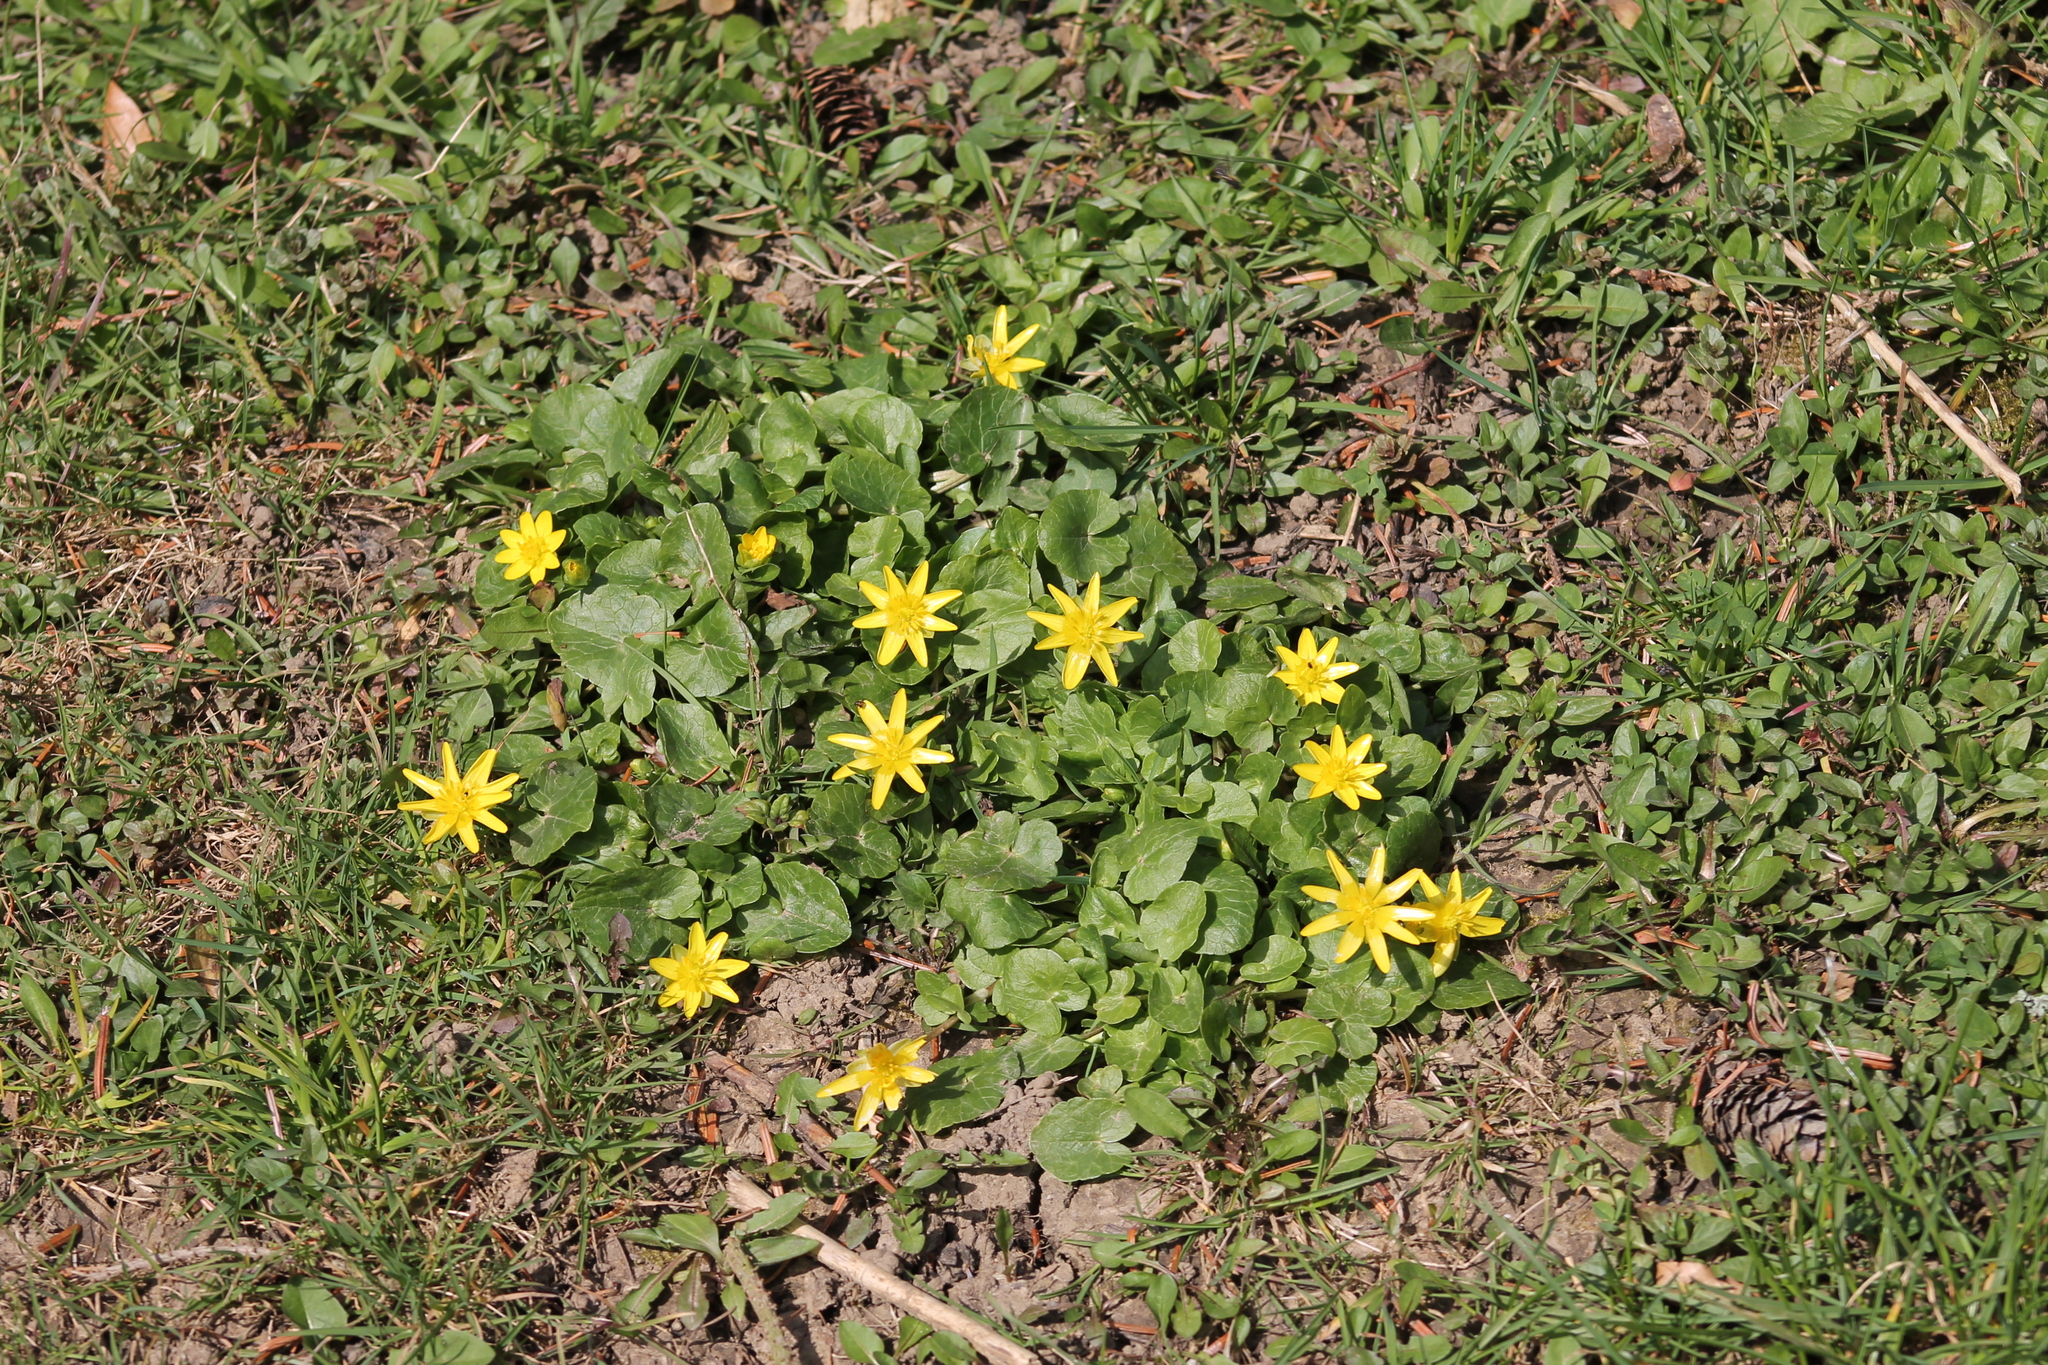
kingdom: Plantae
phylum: Tracheophyta
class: Magnoliopsida
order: Ranunculales
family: Ranunculaceae
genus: Ficaria
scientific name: Ficaria verna
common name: Lesser celandine
